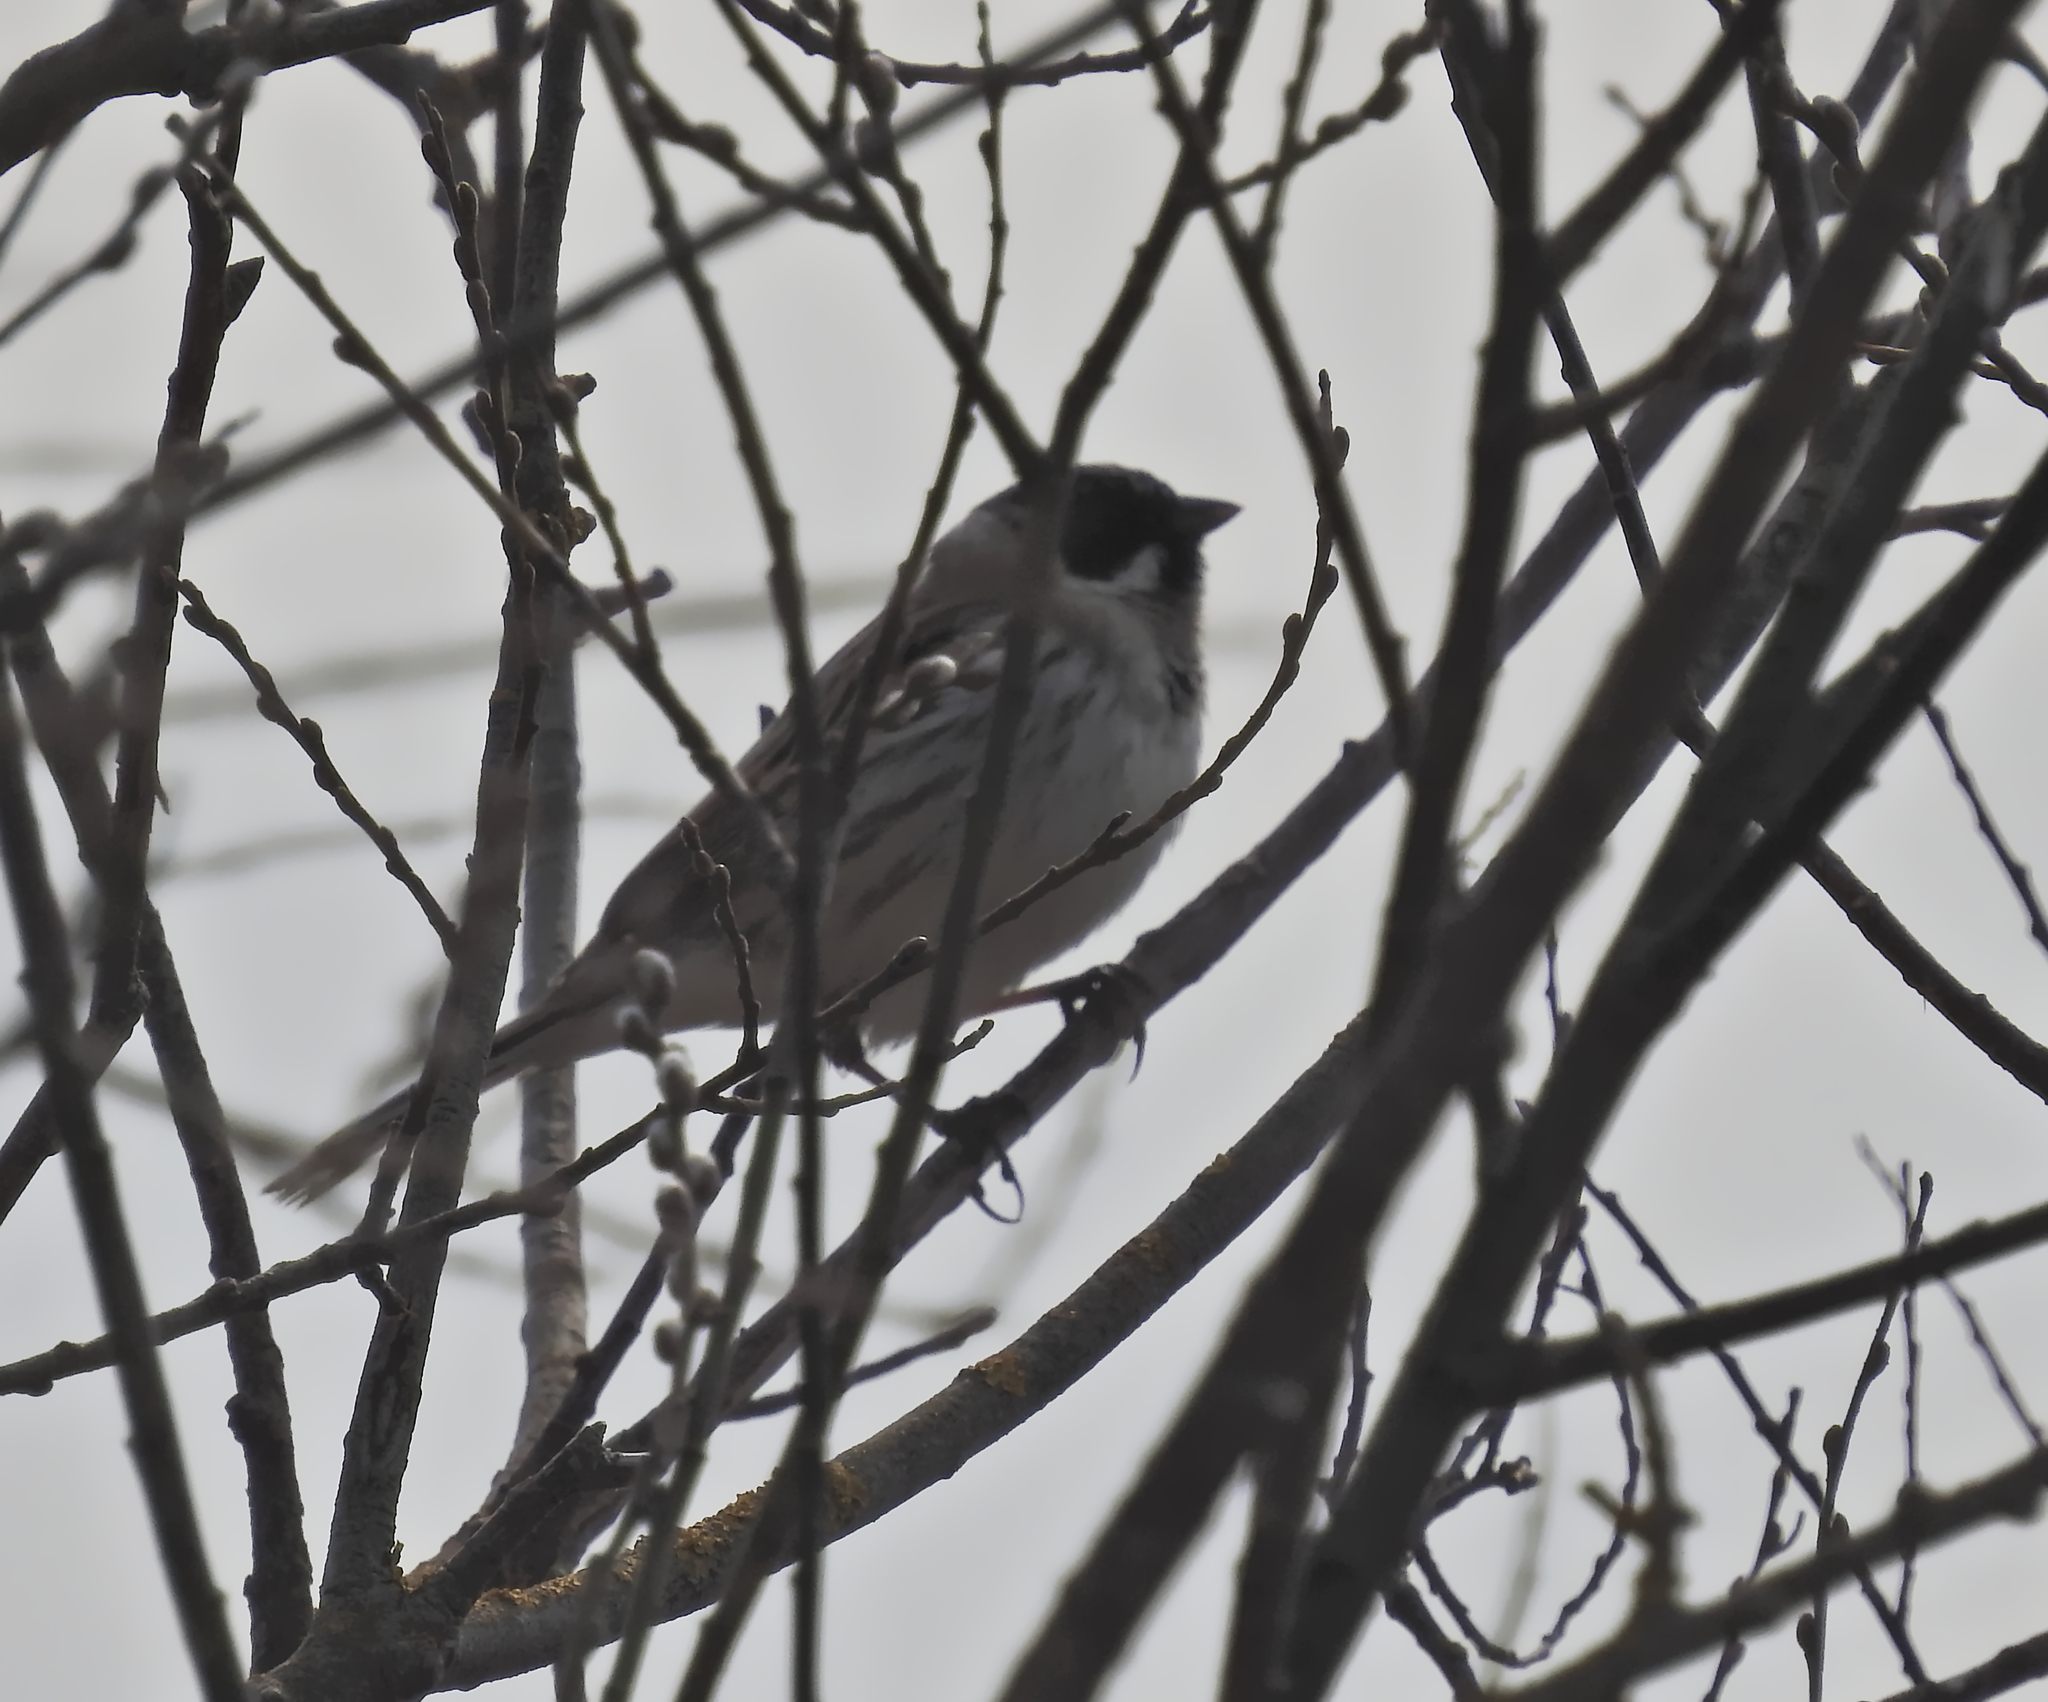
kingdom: Animalia
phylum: Chordata
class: Aves
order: Passeriformes
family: Emberizidae
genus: Emberiza
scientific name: Emberiza schoeniclus
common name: Reed bunting
